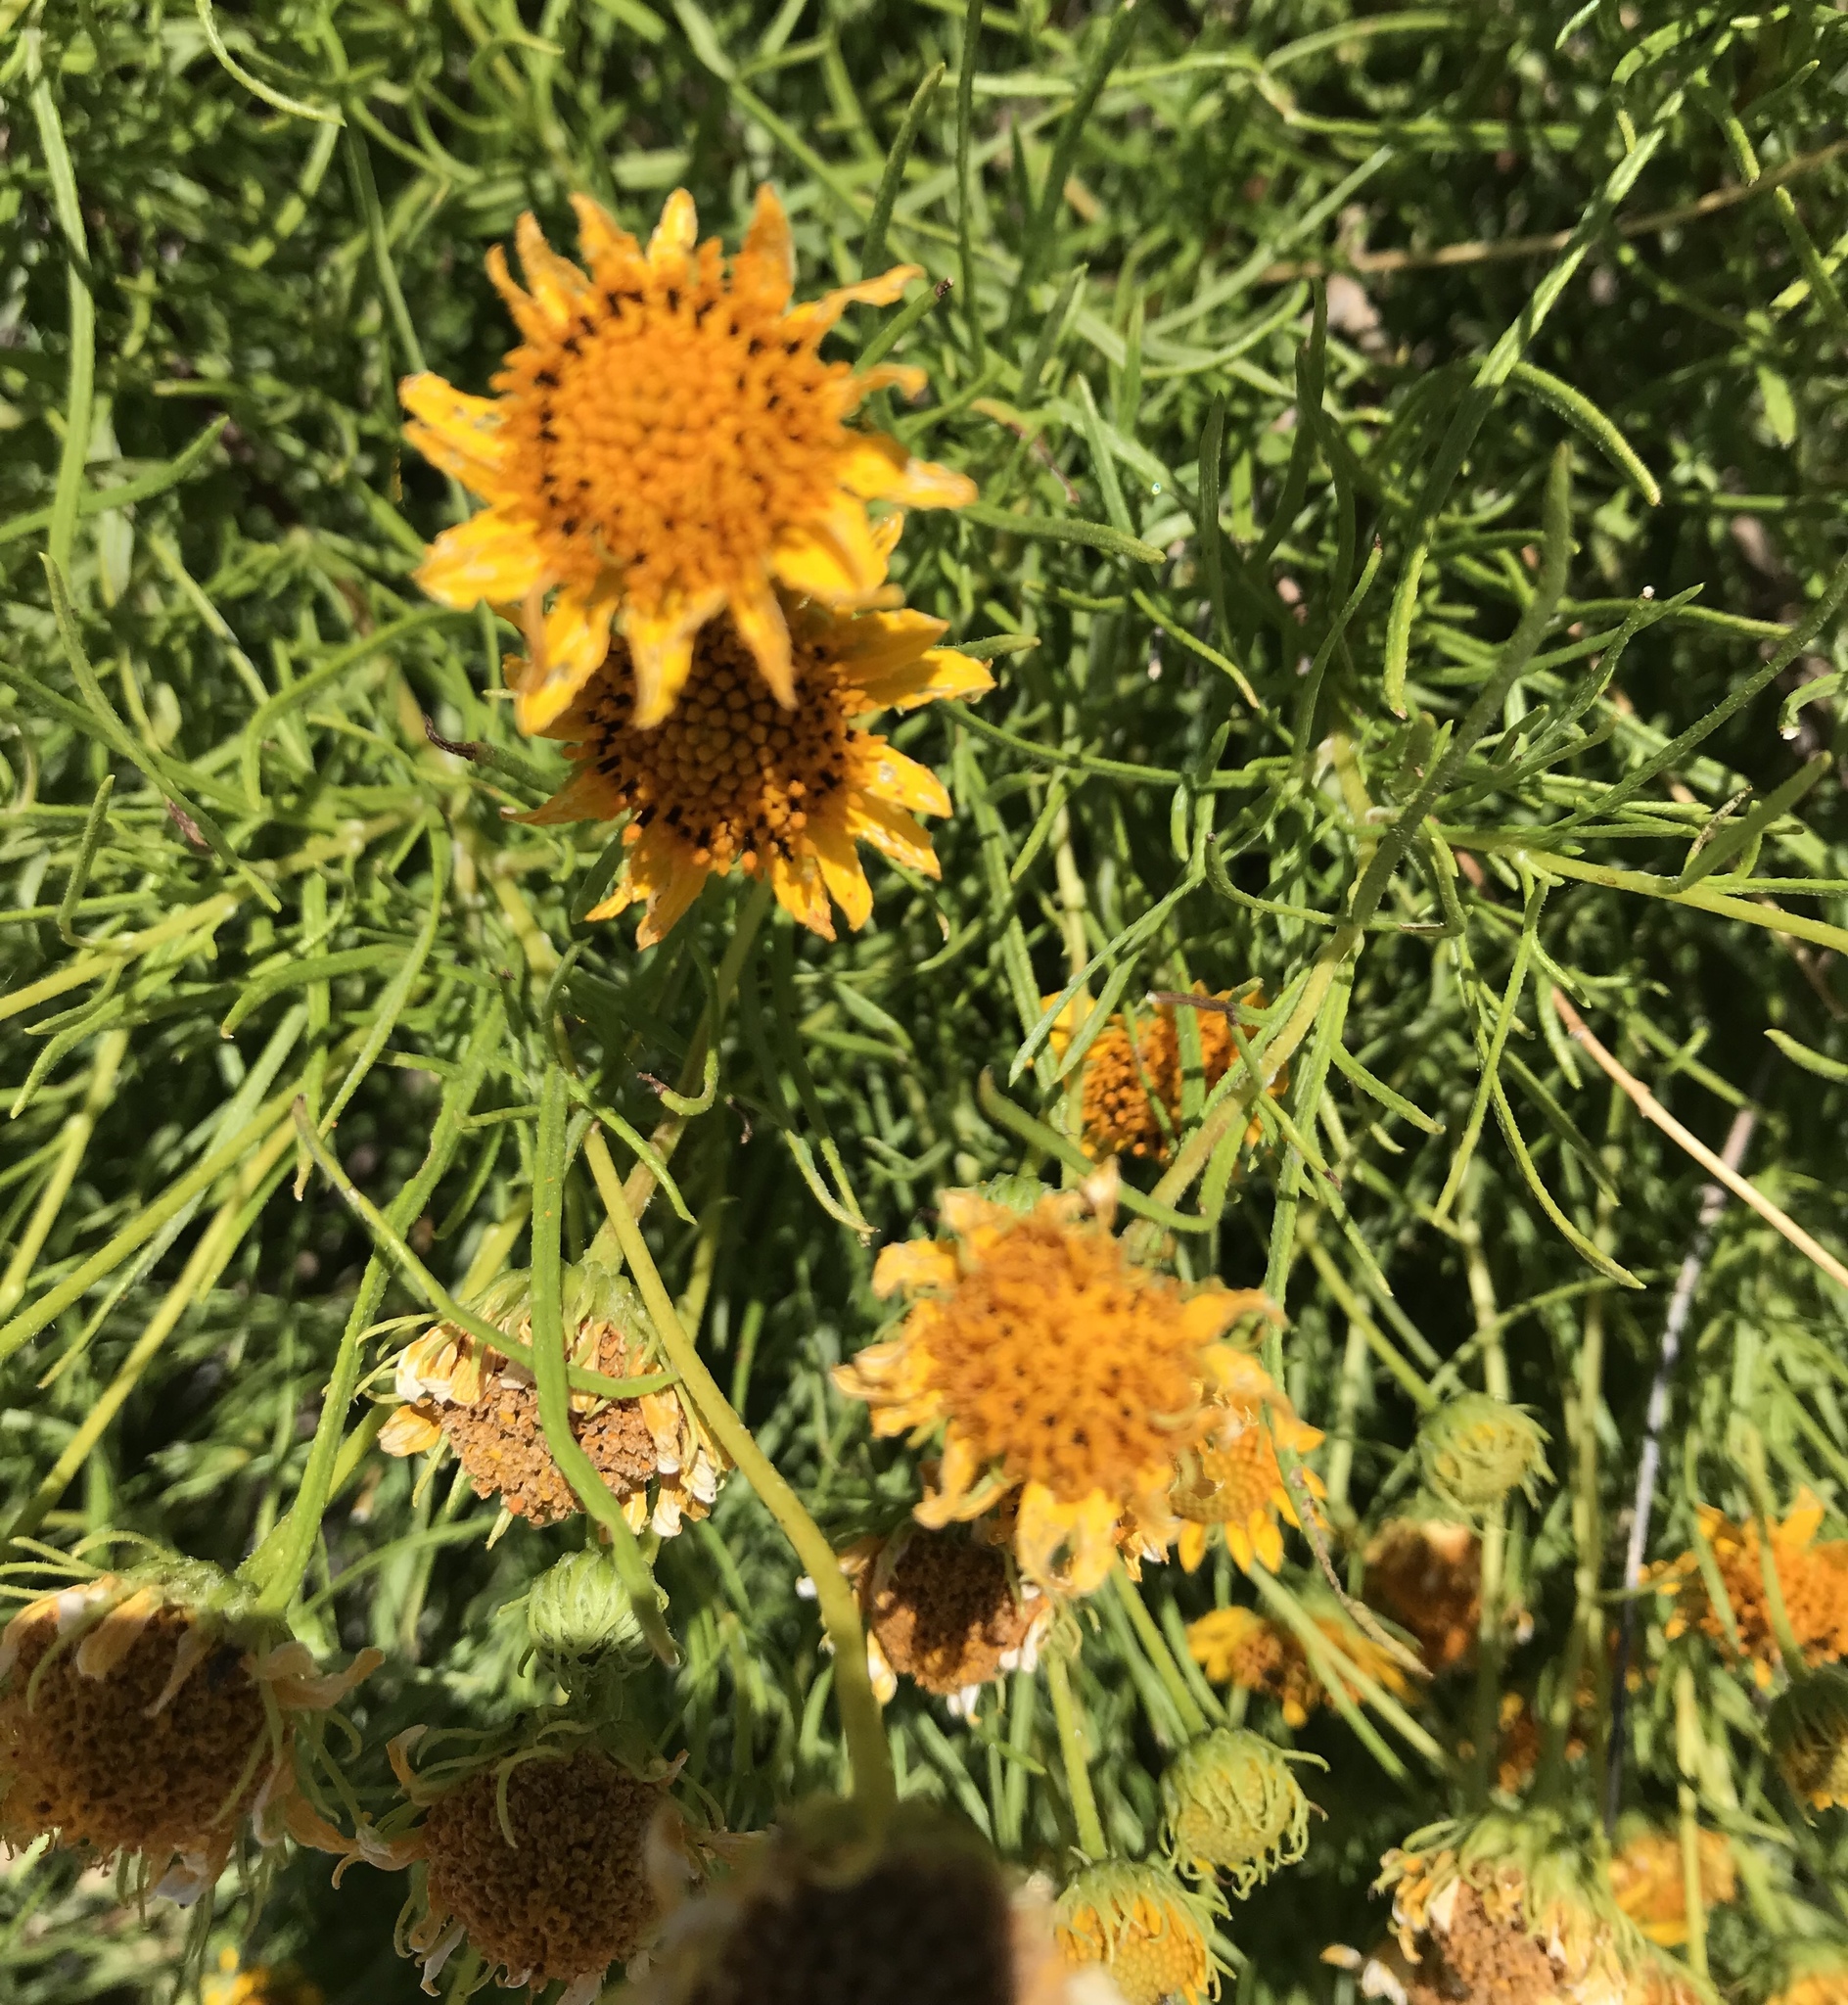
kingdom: Plantae
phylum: Tracheophyta
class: Magnoliopsida
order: Asterales
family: Asteraceae
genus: Sidneya
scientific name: Sidneya tenuifolia
